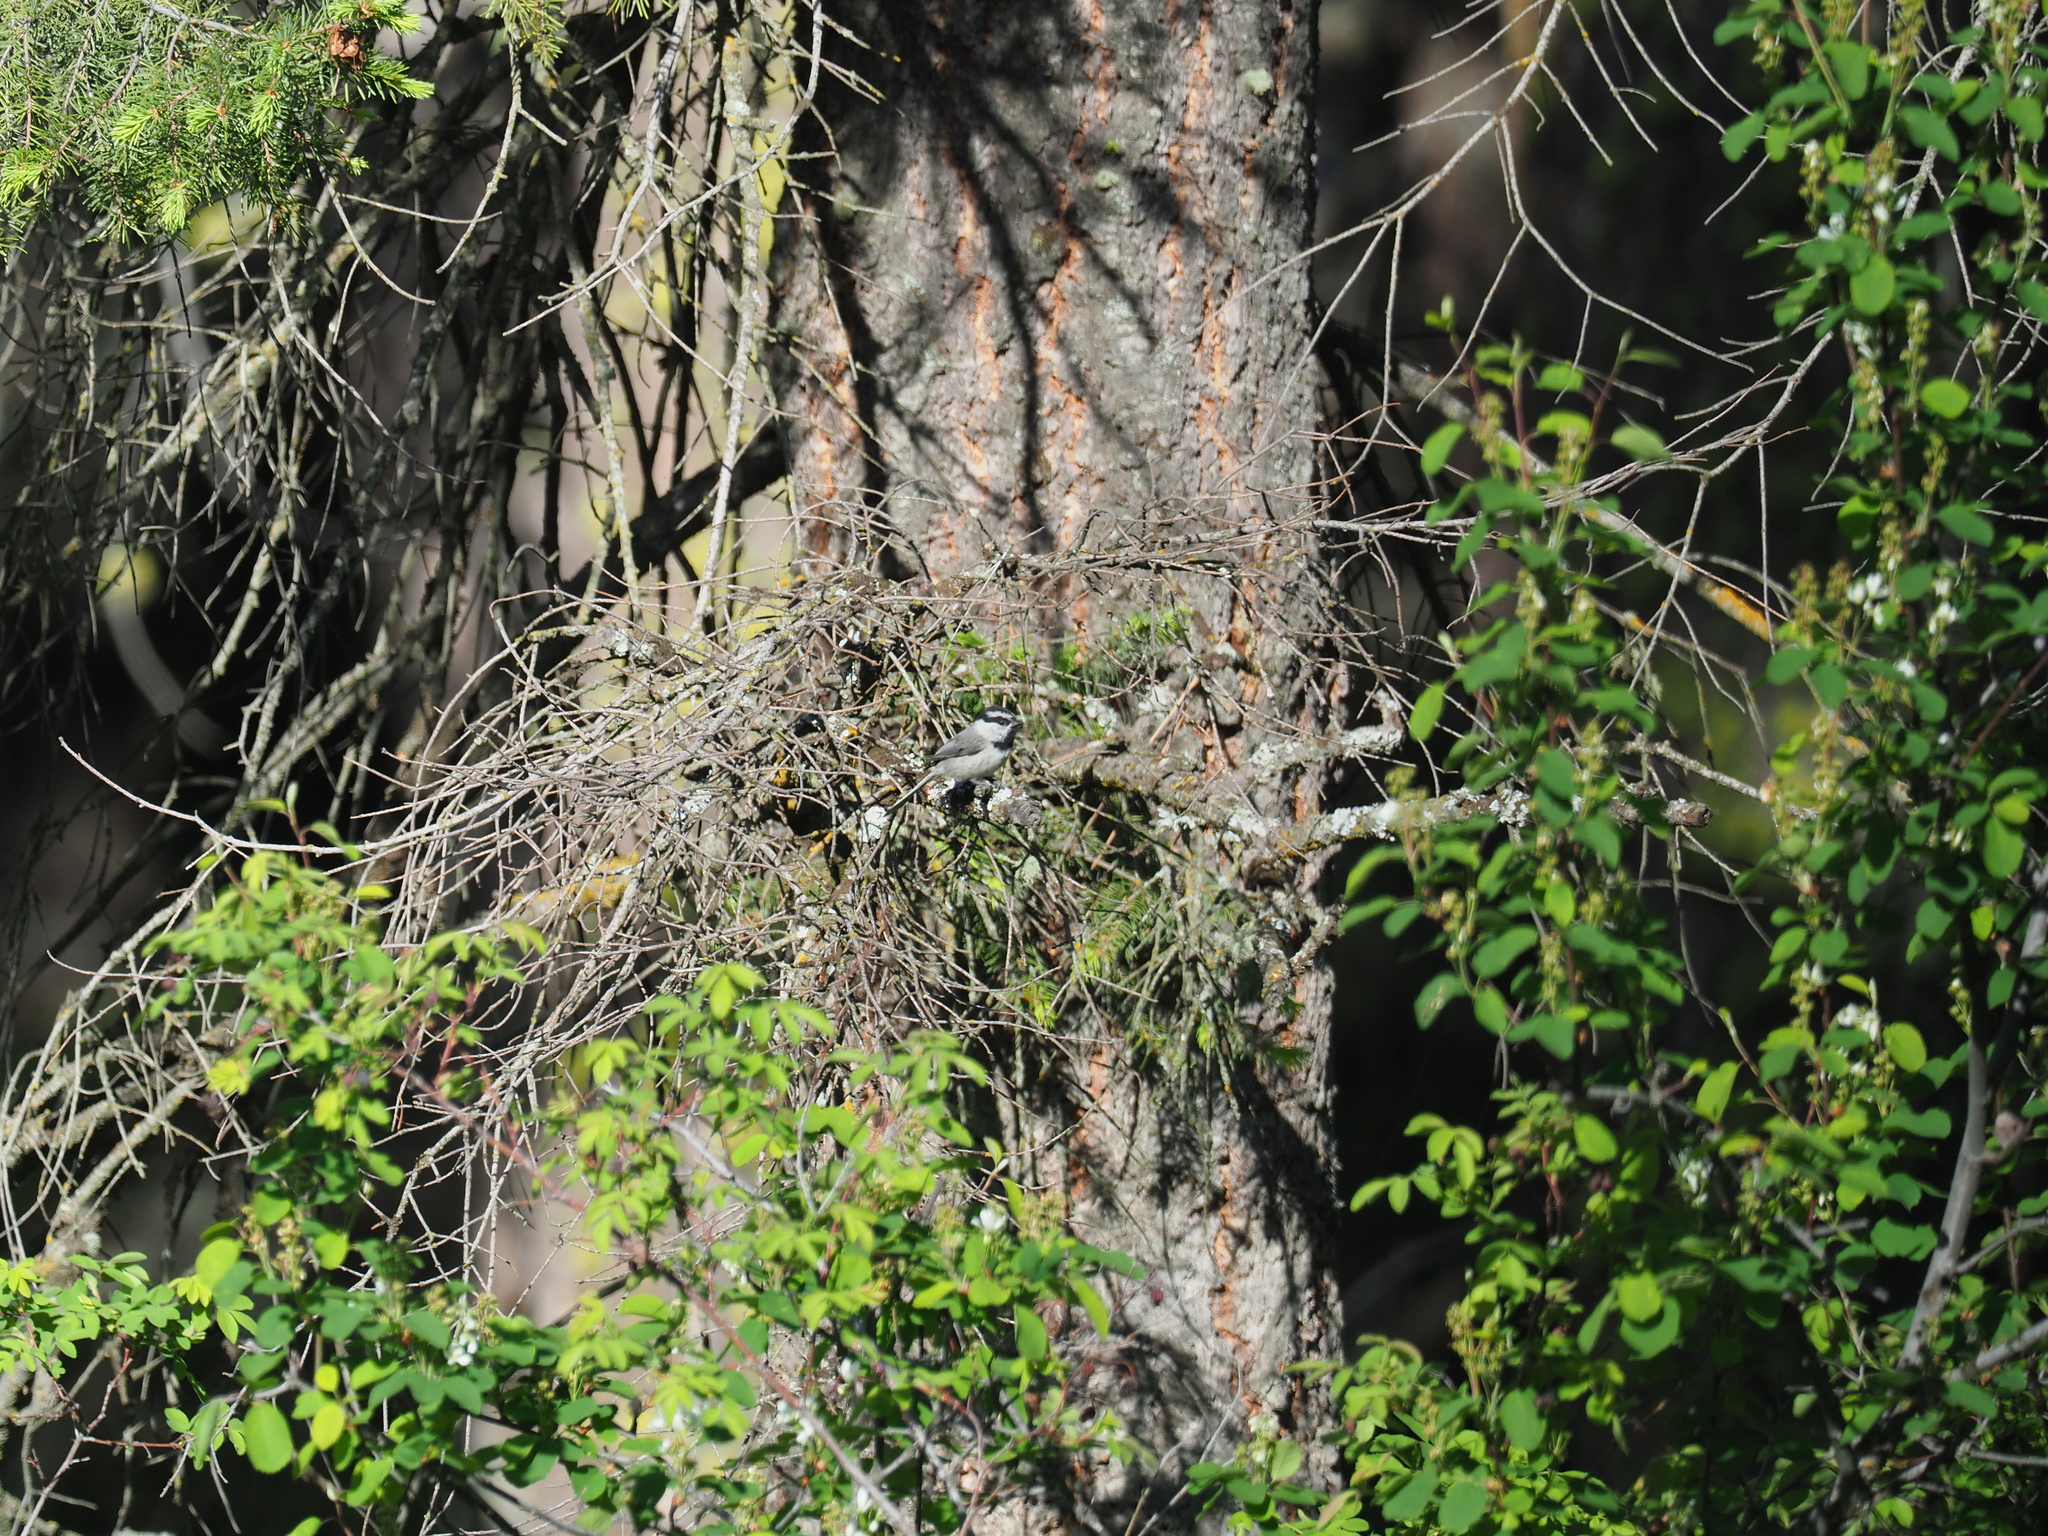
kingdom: Animalia
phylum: Chordata
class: Aves
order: Passeriformes
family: Paridae
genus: Poecile
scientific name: Poecile gambeli
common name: Mountain chickadee
